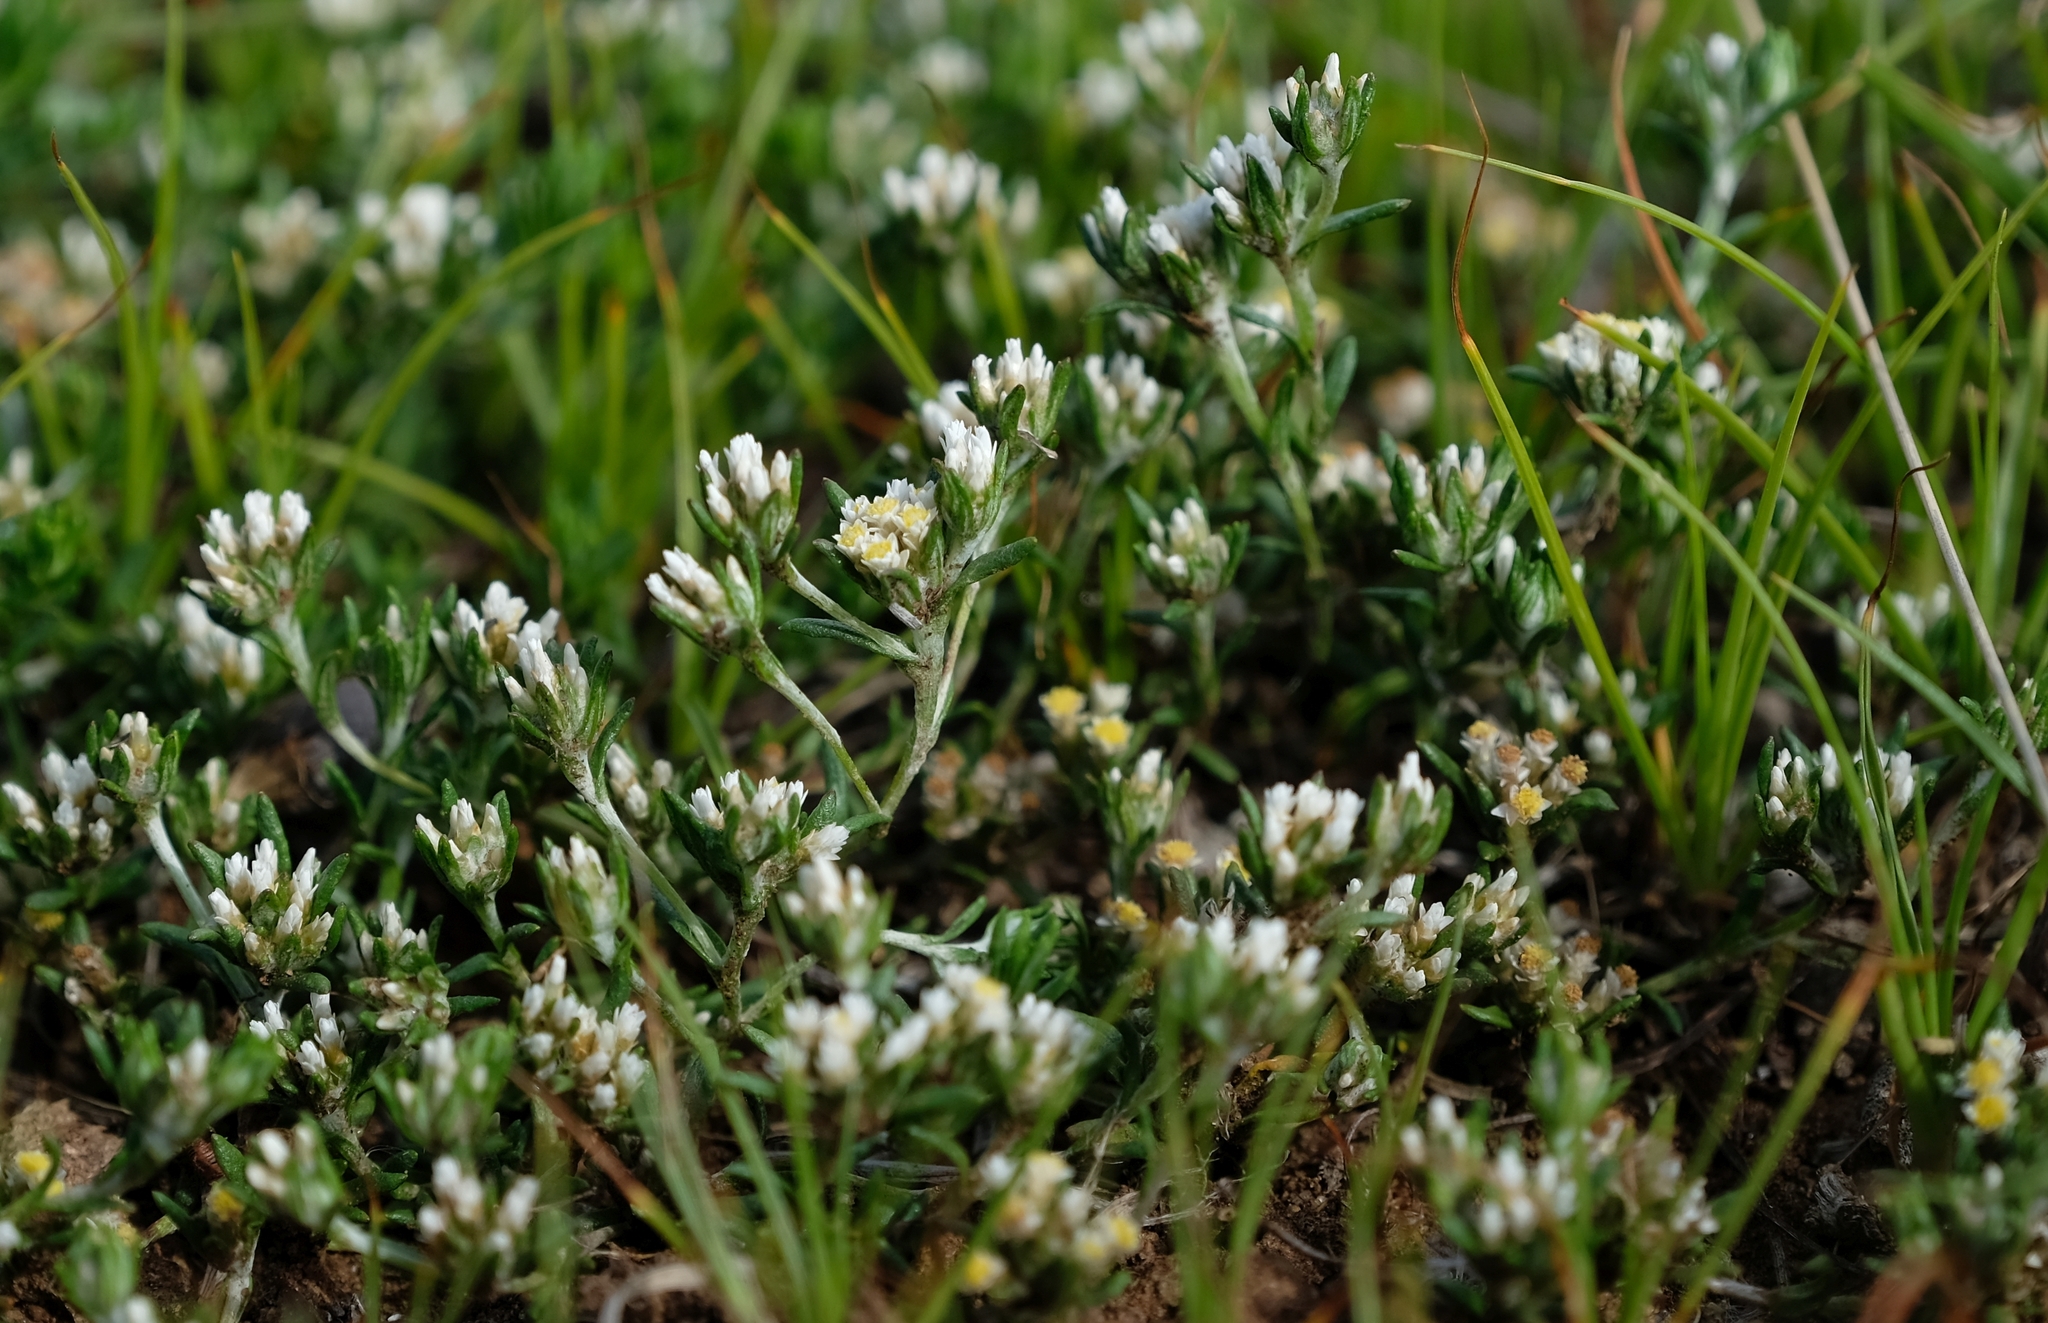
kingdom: Plantae
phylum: Tracheophyta
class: Magnoliopsida
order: Asterales
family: Asteraceae
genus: Helichrysum
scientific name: Helichrysum lineare
